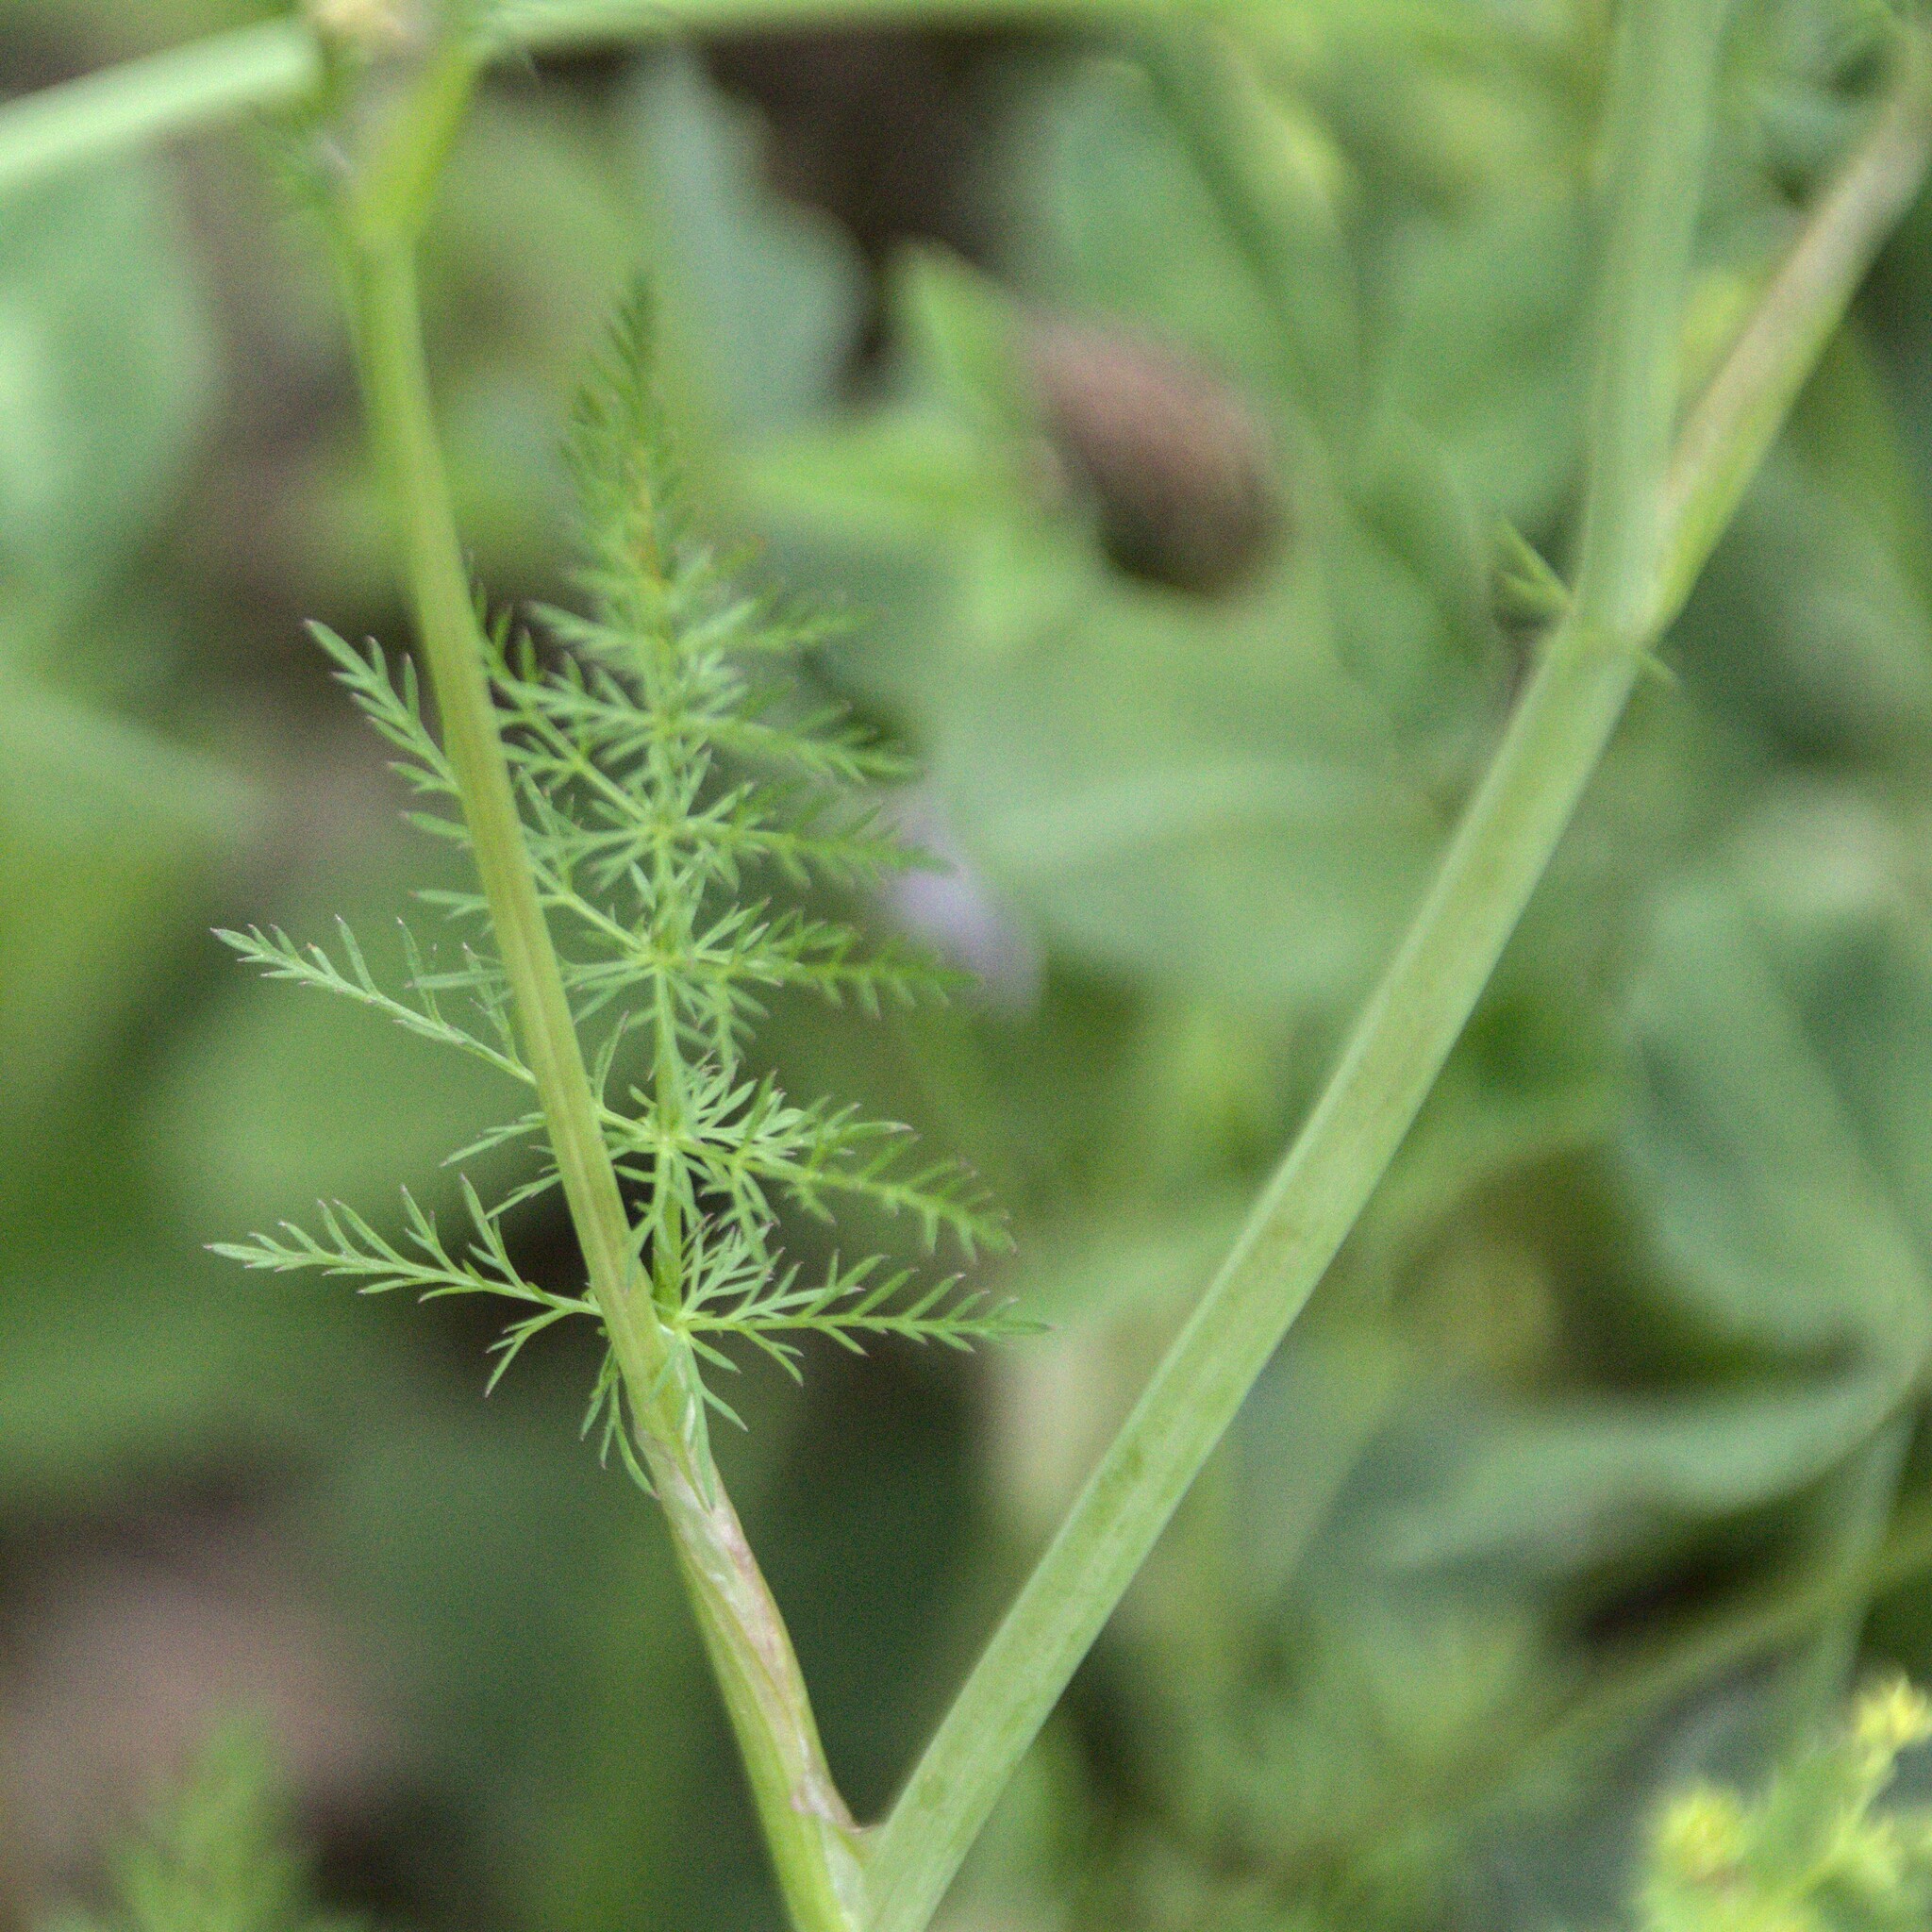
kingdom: Plantae
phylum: Tracheophyta
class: Magnoliopsida
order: Apiales
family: Apiaceae
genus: Carum
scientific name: Carum carvi
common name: Caraway
